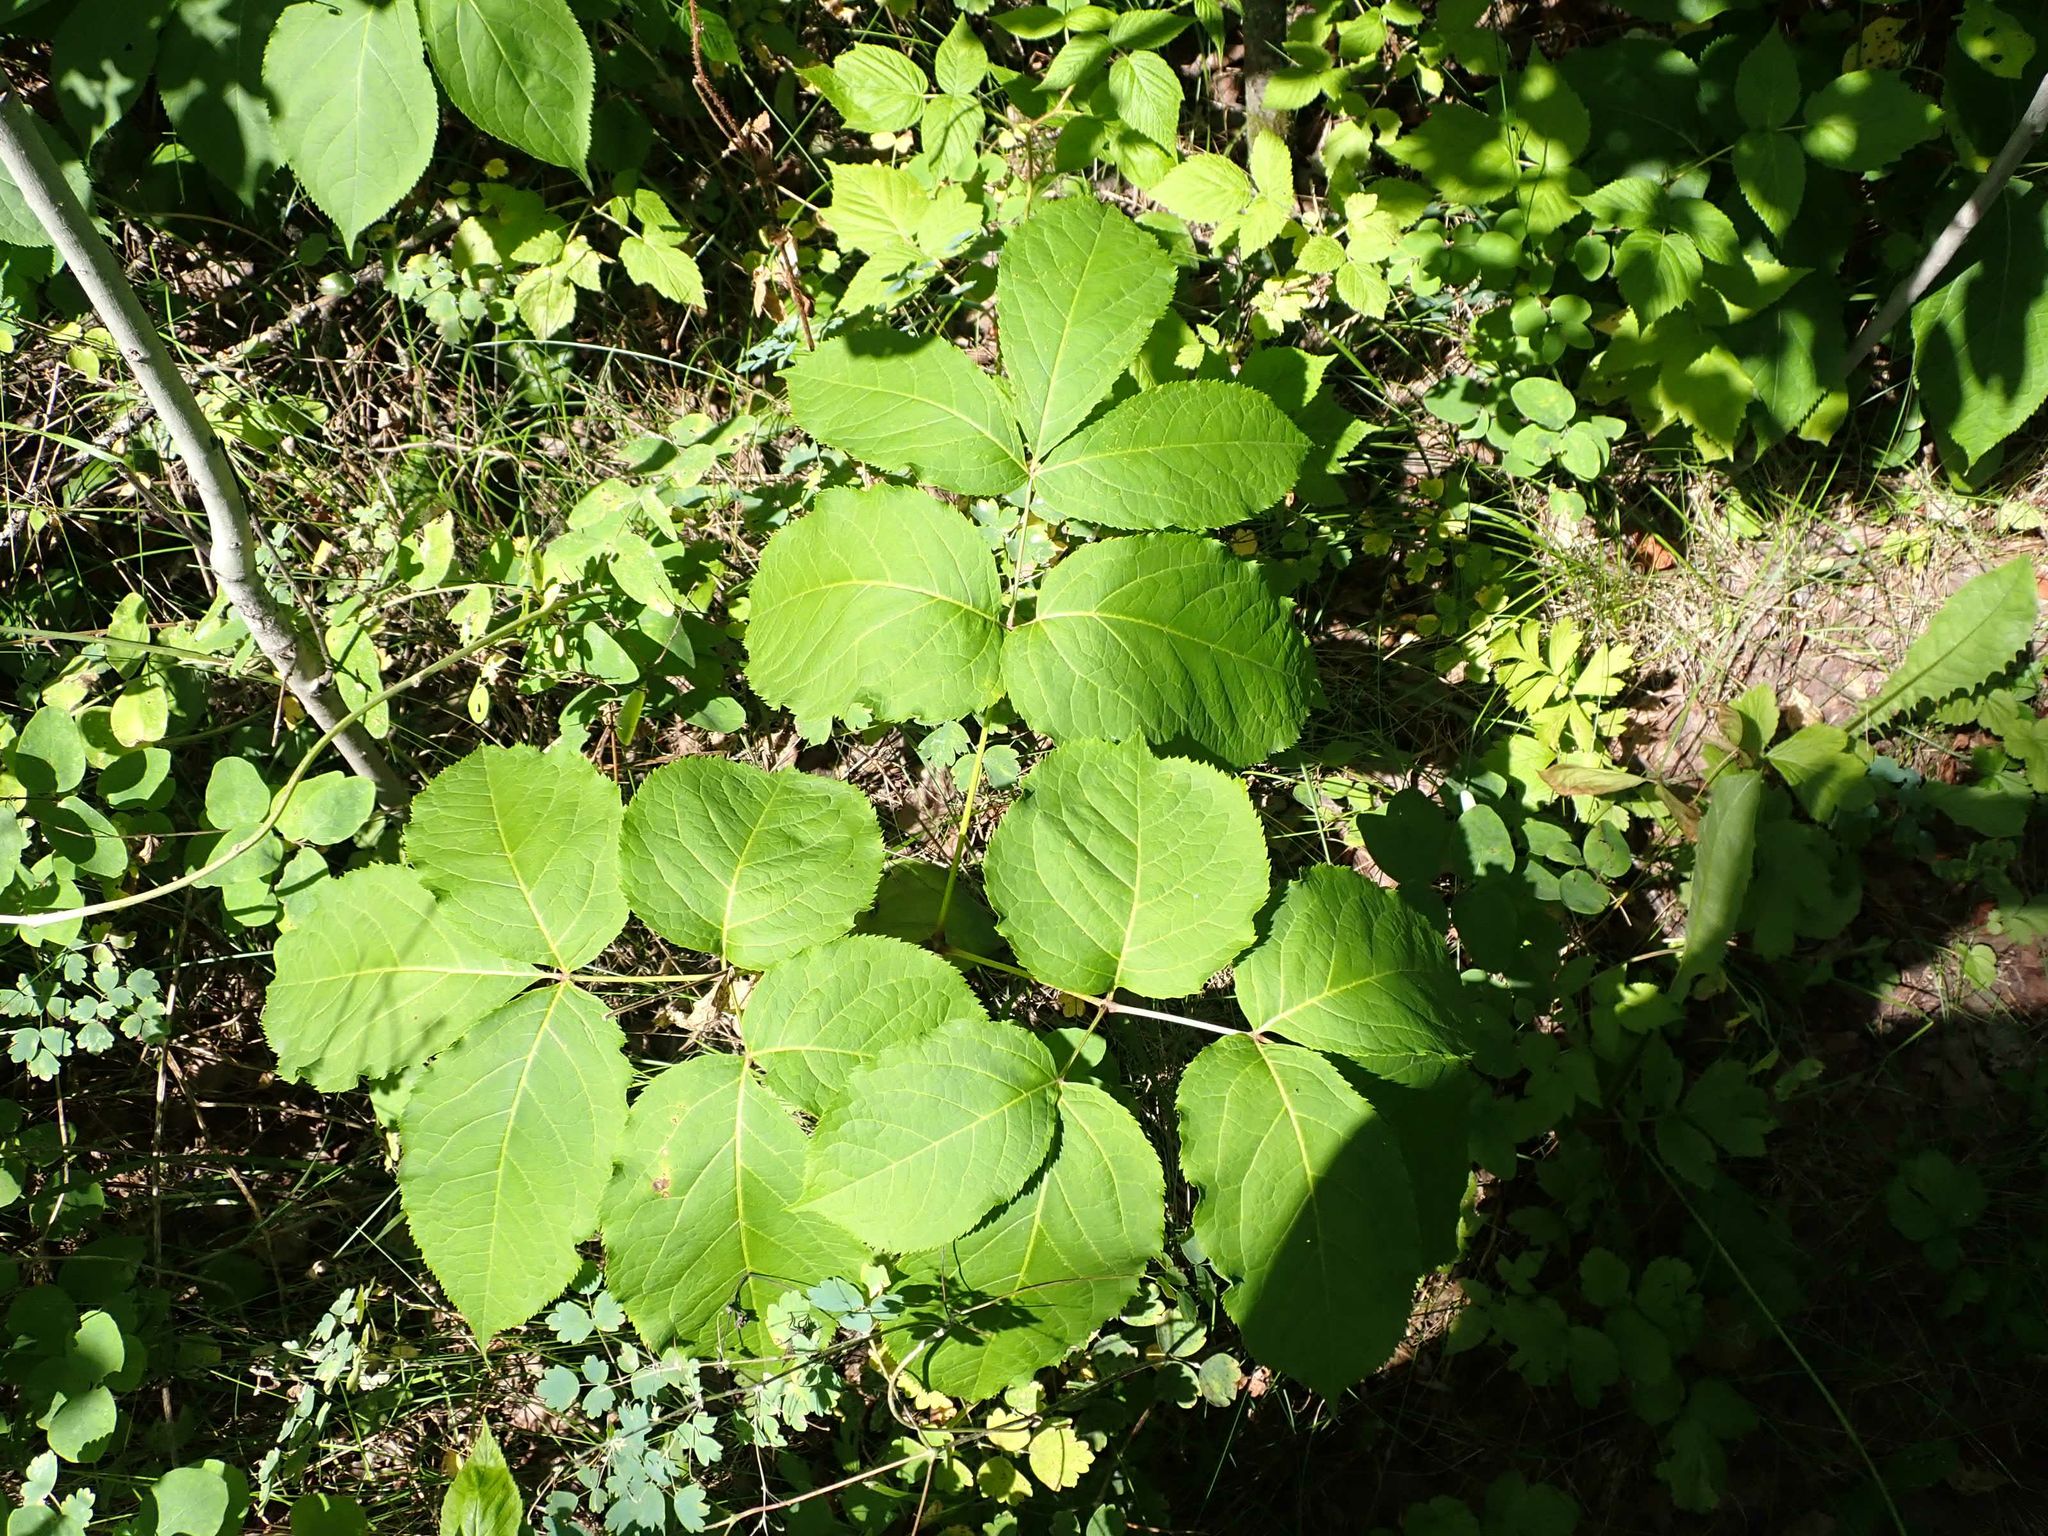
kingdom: Plantae
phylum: Tracheophyta
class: Magnoliopsida
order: Apiales
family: Araliaceae
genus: Aralia
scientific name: Aralia nudicaulis
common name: Wild sarsaparilla
